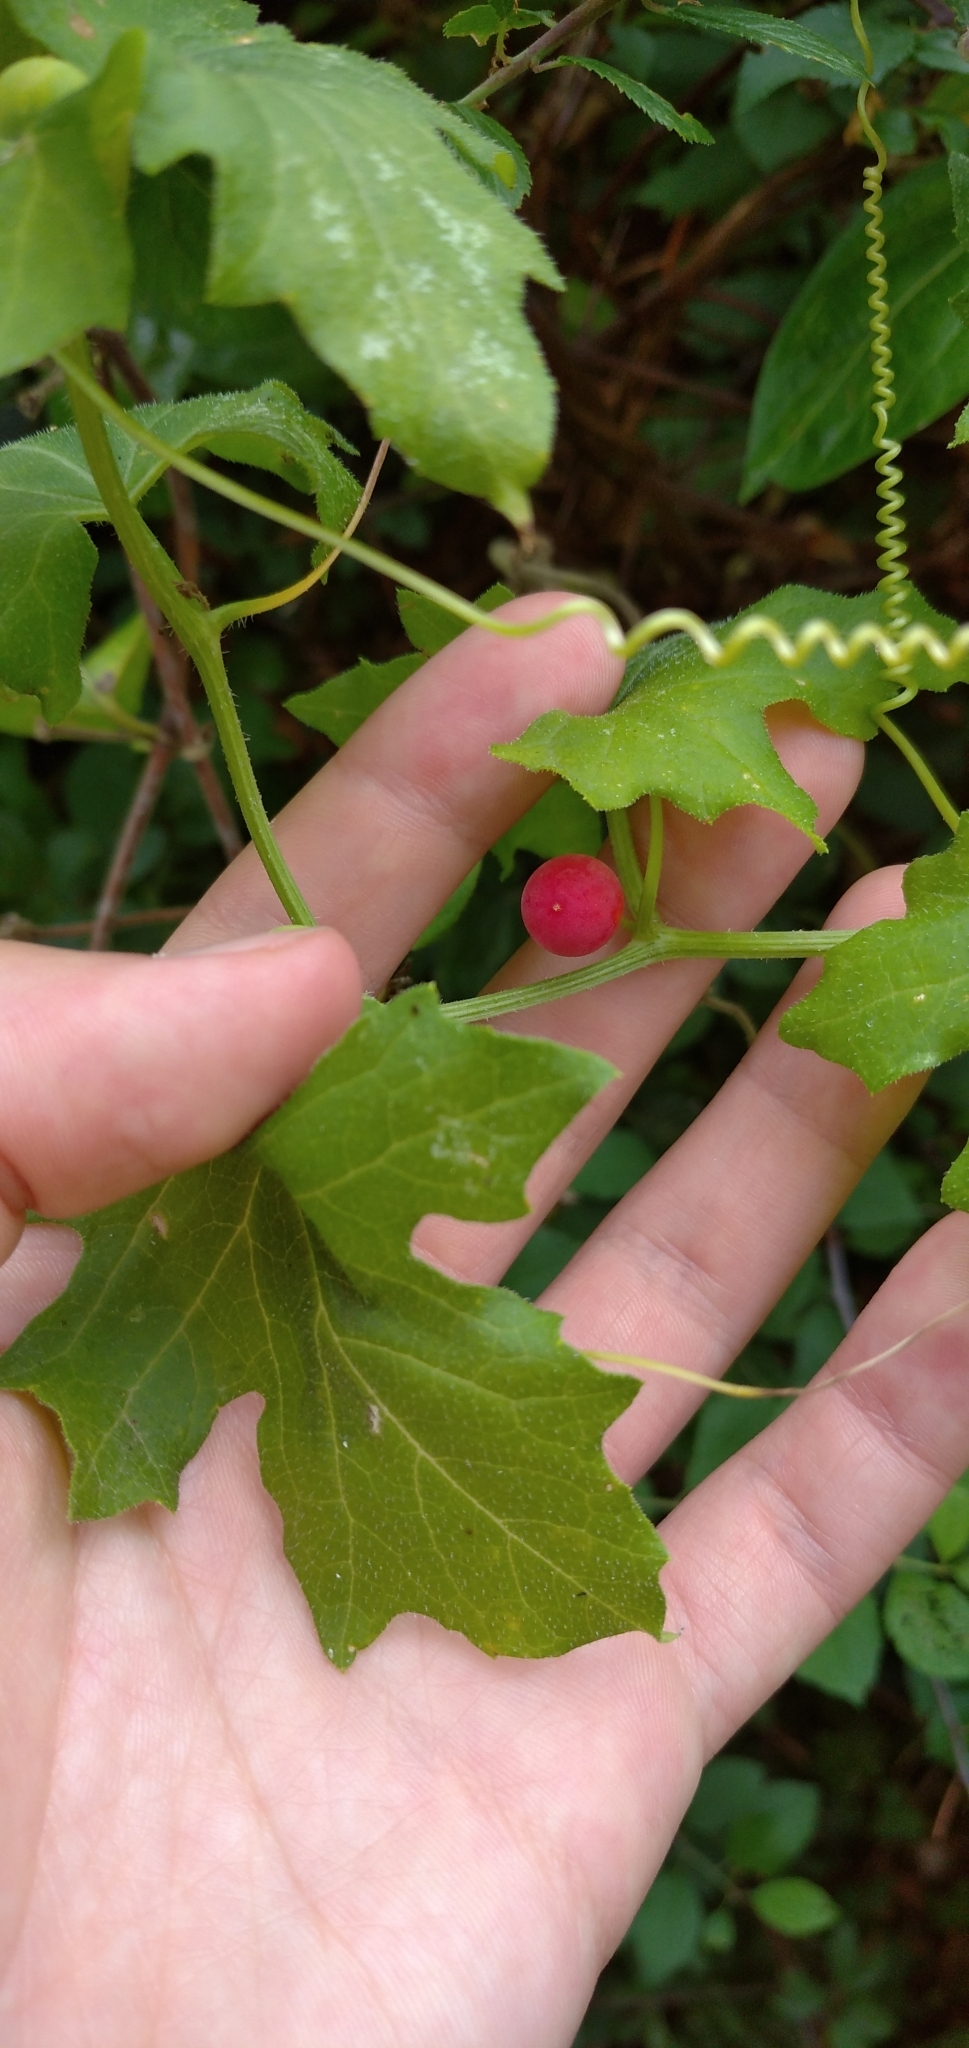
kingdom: Plantae
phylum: Tracheophyta
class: Magnoliopsida
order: Cucurbitales
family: Cucurbitaceae
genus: Bryonia
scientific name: Bryonia cretica
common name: Cretan bryony
